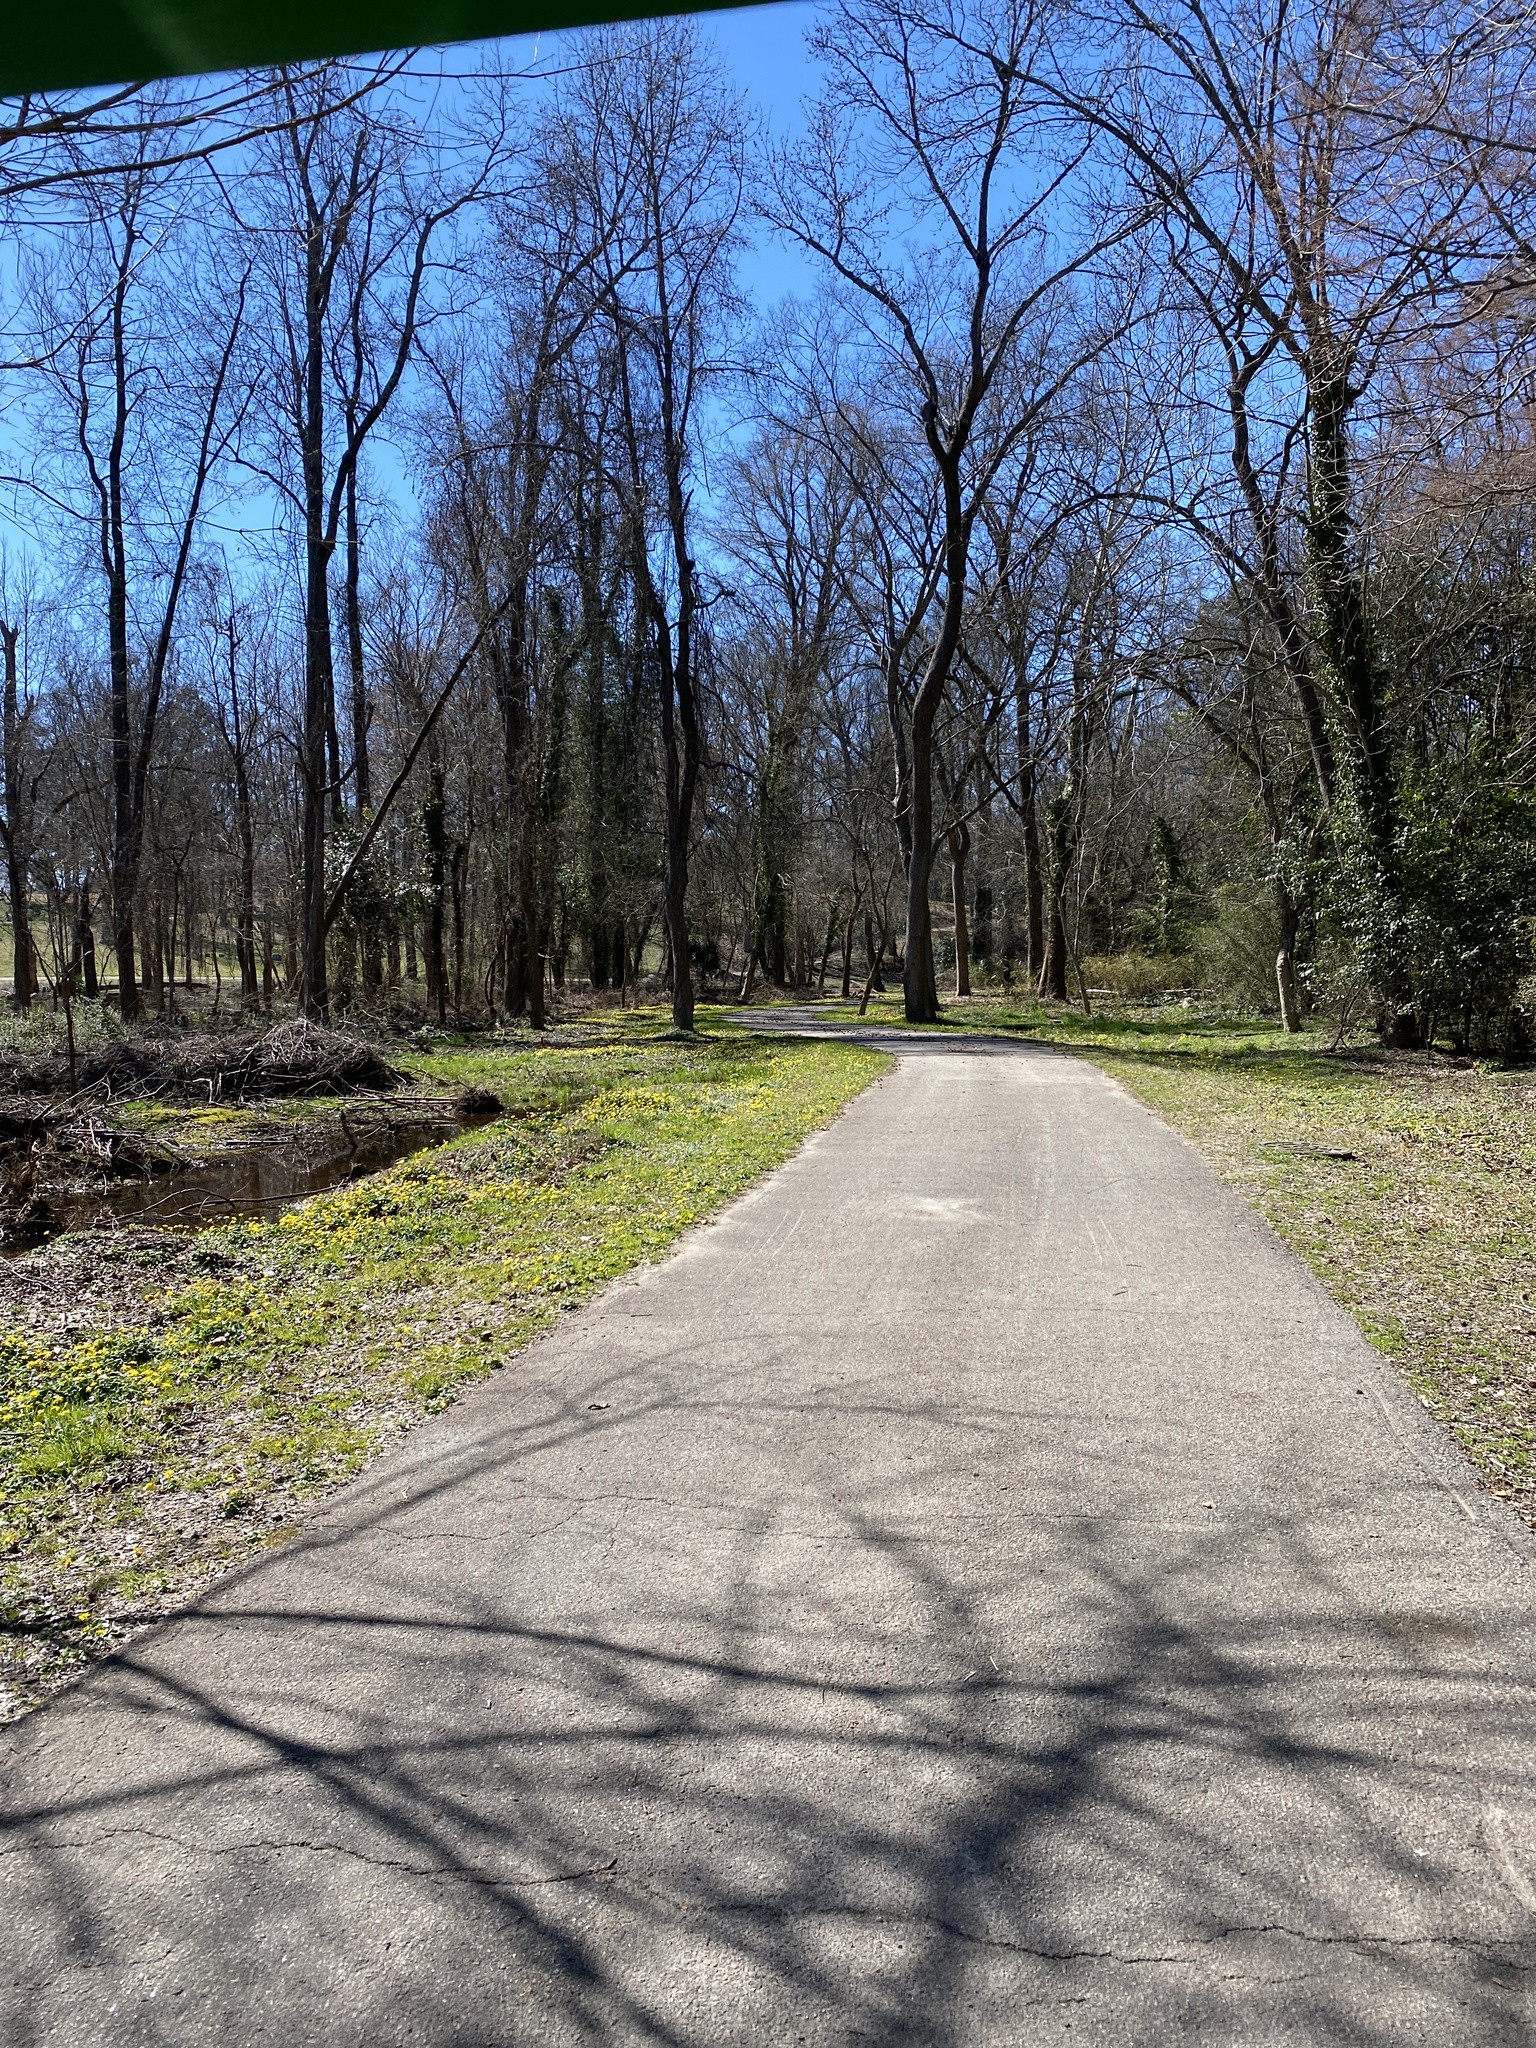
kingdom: Plantae
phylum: Tracheophyta
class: Magnoliopsida
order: Ranunculales
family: Ranunculaceae
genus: Ficaria
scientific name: Ficaria verna
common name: Lesser celandine
